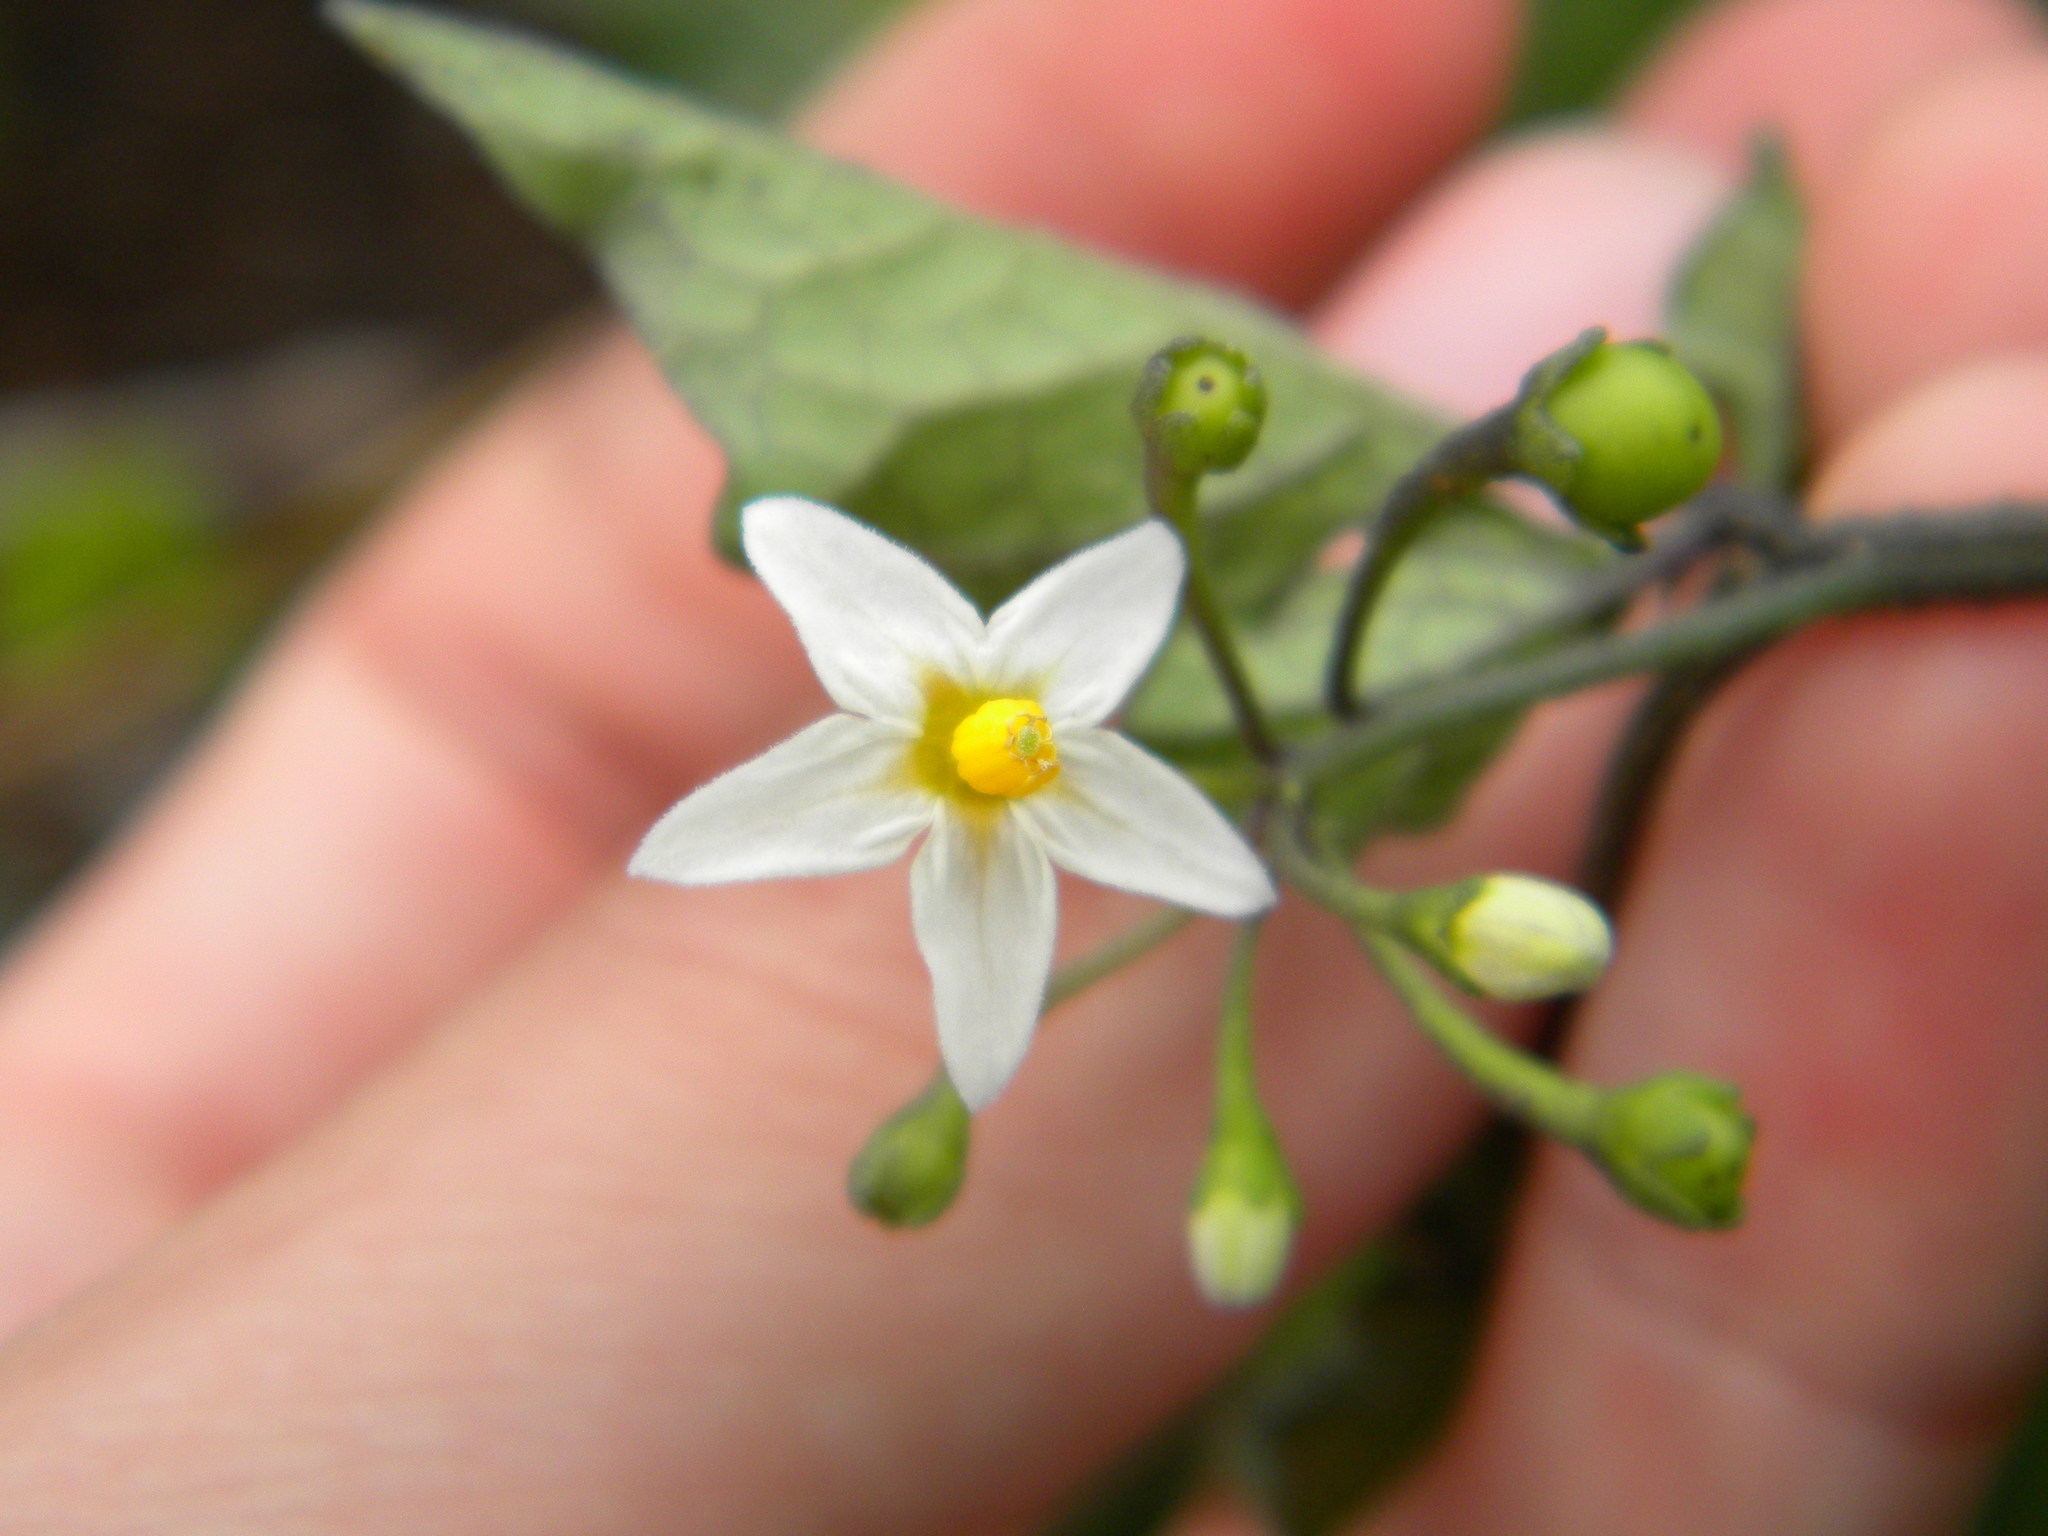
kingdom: Plantae
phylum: Tracheophyta
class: Magnoliopsida
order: Solanales
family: Solanaceae
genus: Solanum
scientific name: Solanum nigrum
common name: Black nightshade
